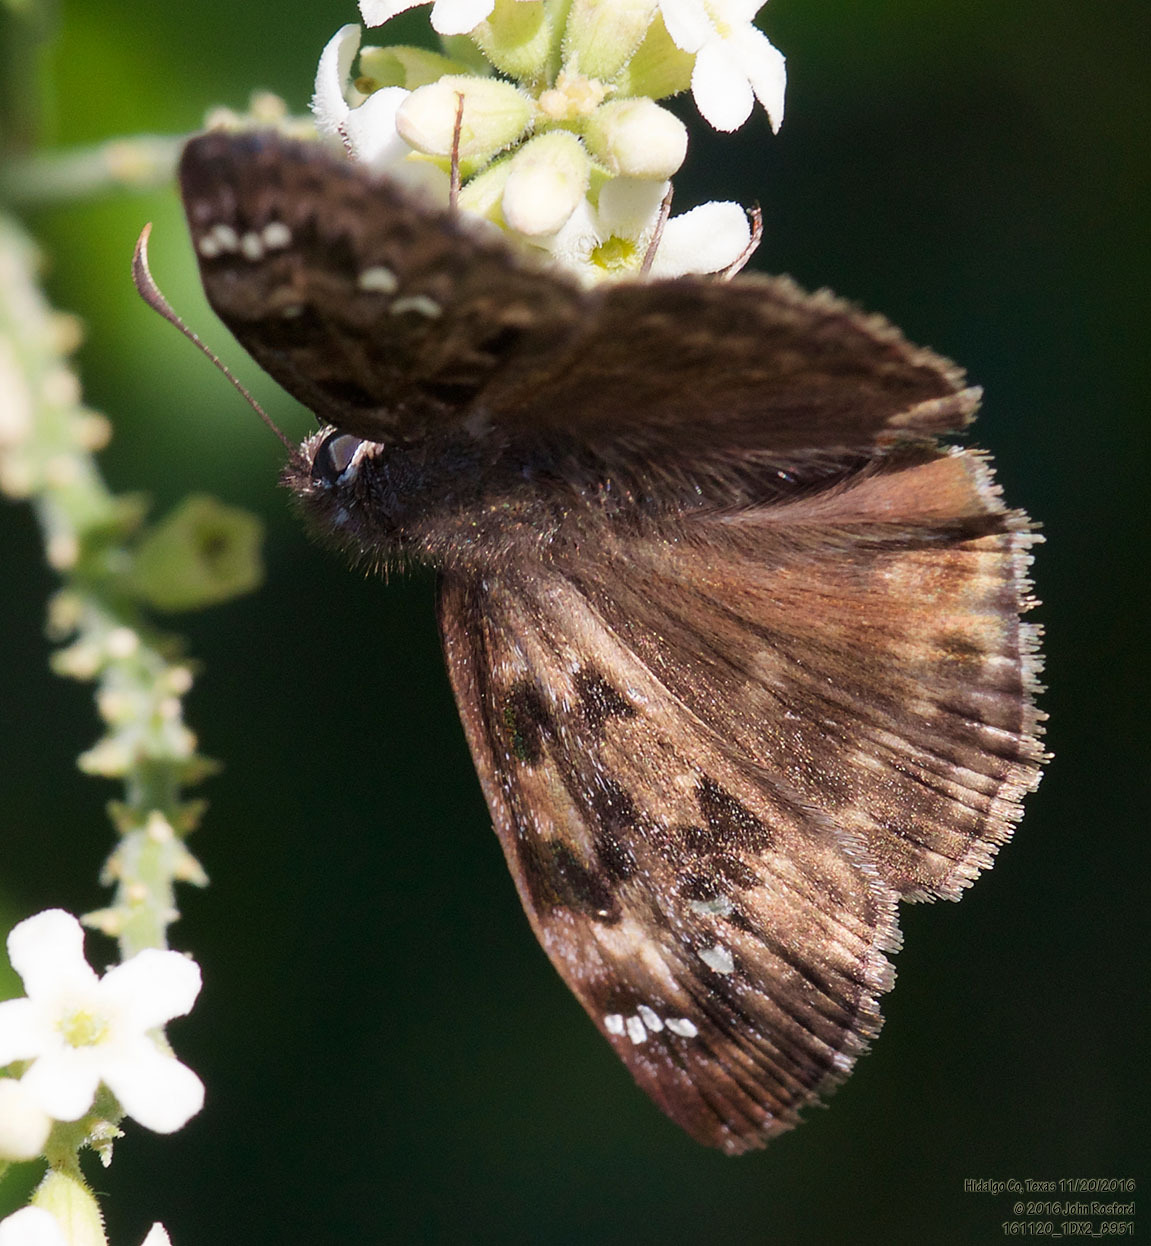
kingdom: Animalia
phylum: Arthropoda
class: Insecta
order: Lepidoptera
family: Hesperiidae
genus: Erynnis
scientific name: Erynnis horatius
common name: Horace's duskywing
